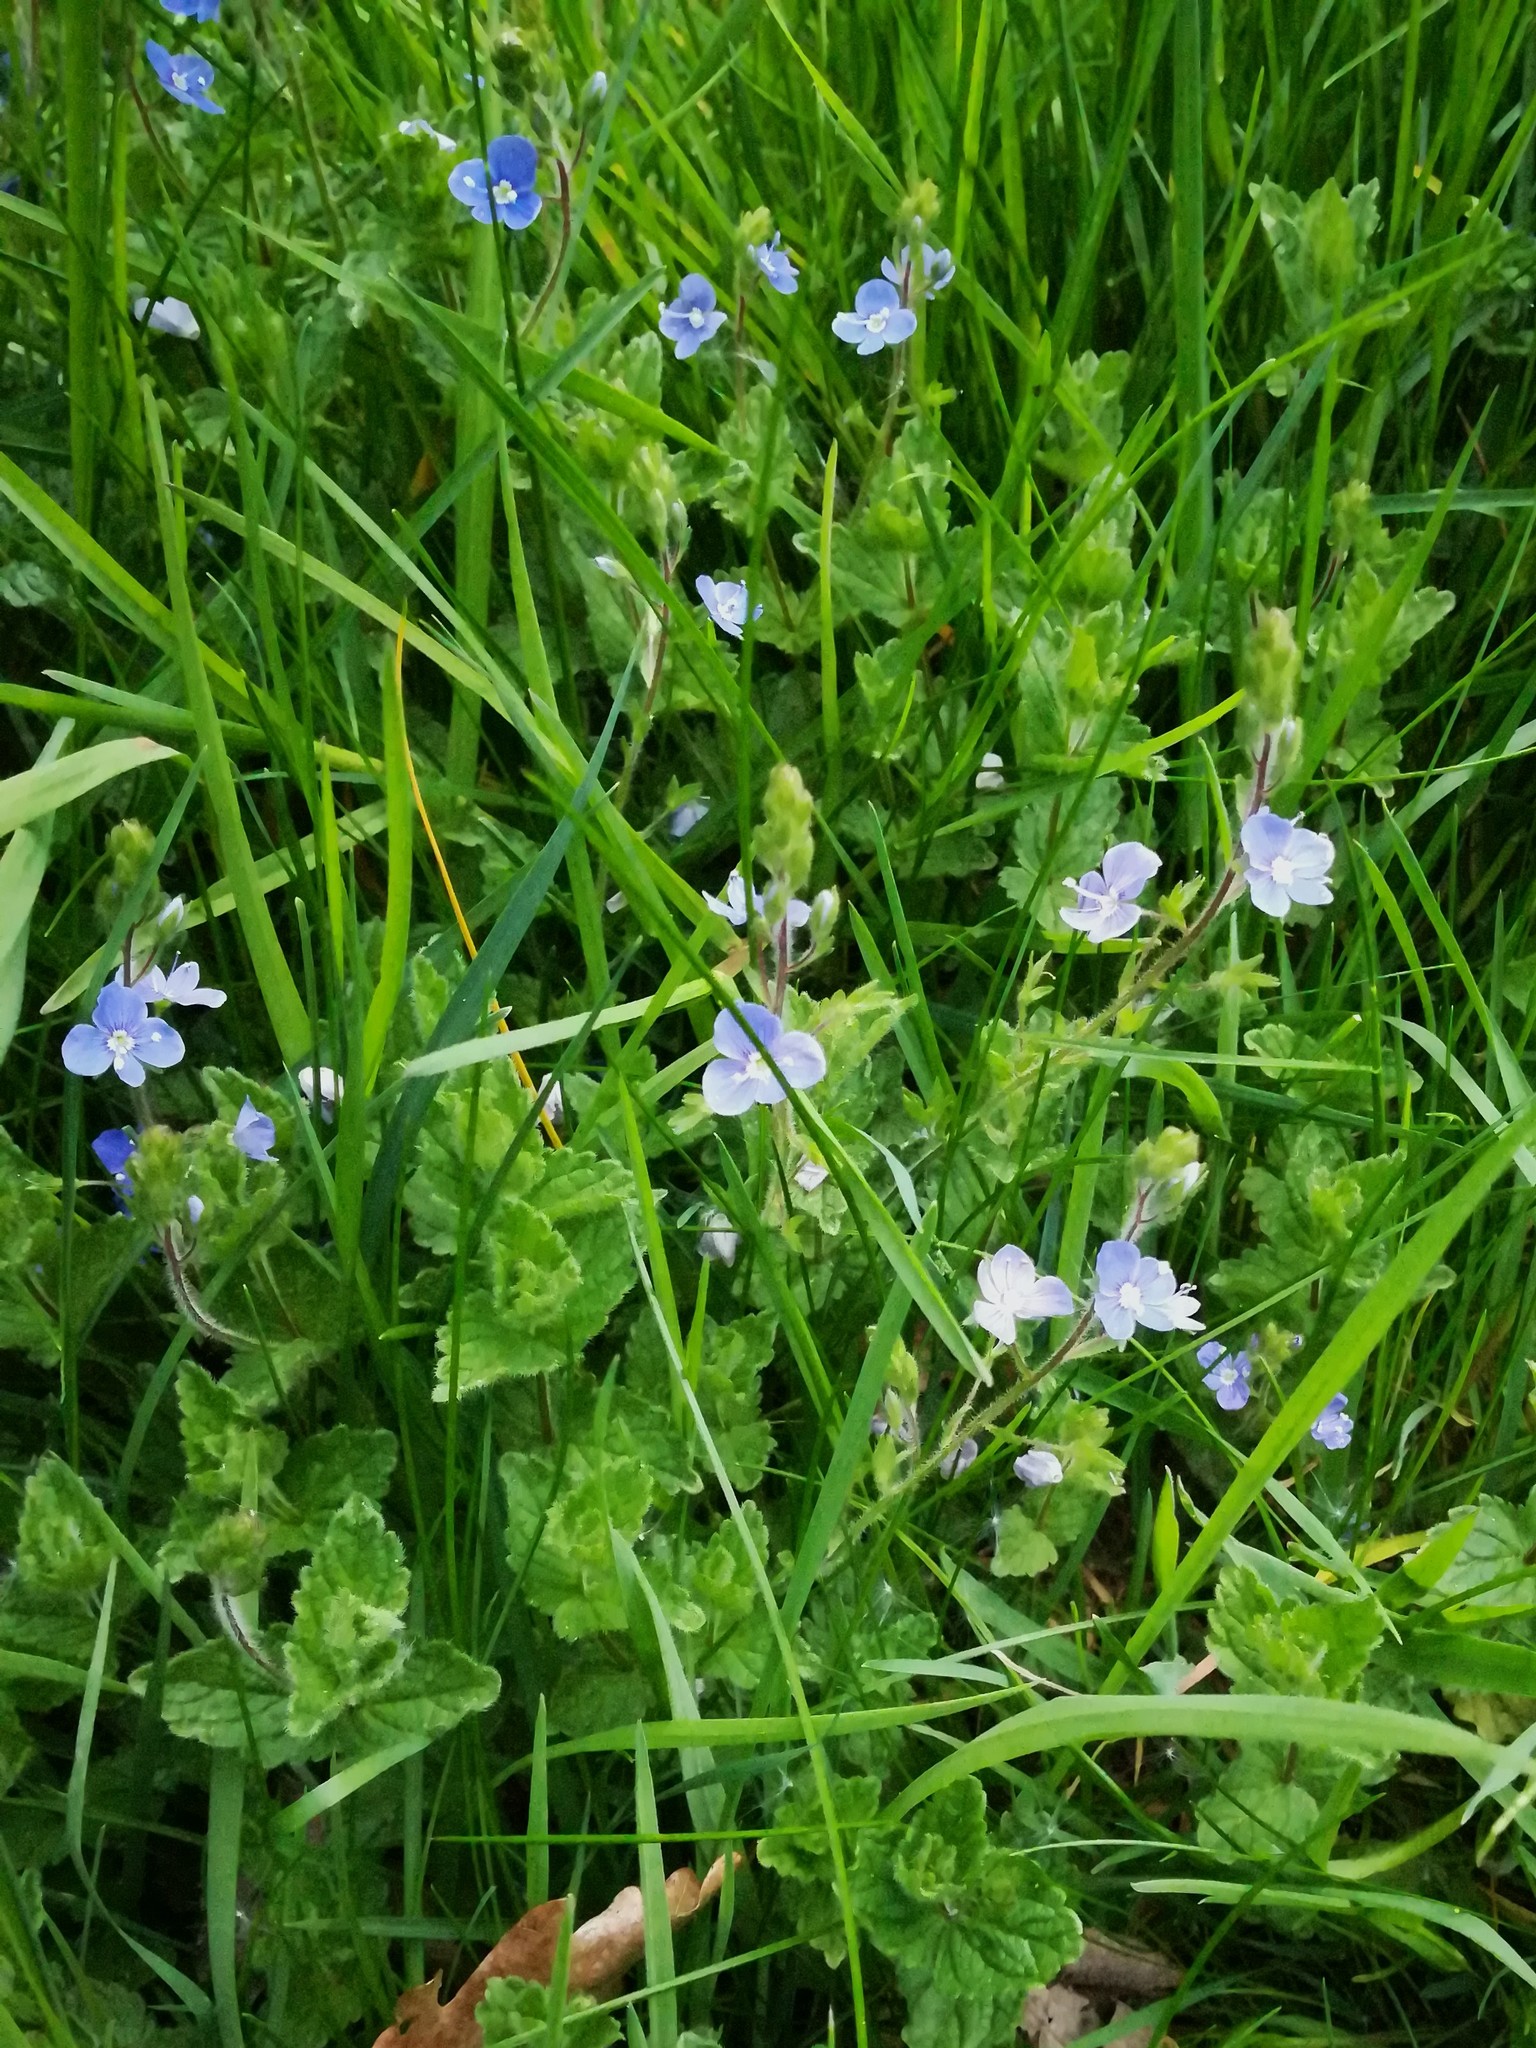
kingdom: Plantae
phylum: Tracheophyta
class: Magnoliopsida
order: Lamiales
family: Plantaginaceae
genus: Veronica
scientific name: Veronica chamaedrys
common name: Germander speedwell
